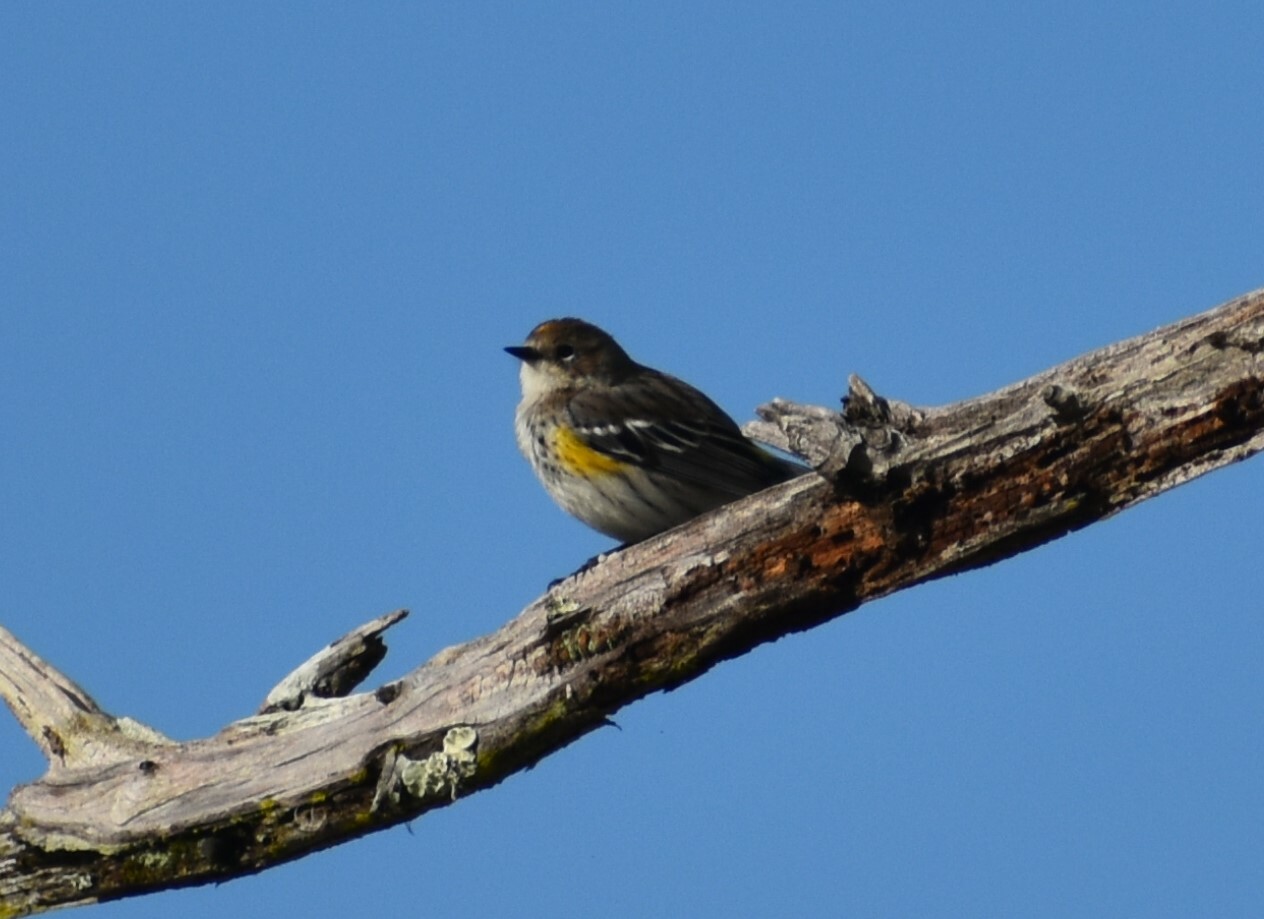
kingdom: Animalia
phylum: Chordata
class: Aves
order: Passeriformes
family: Parulidae
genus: Setophaga
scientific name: Setophaga coronata
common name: Myrtle warbler
